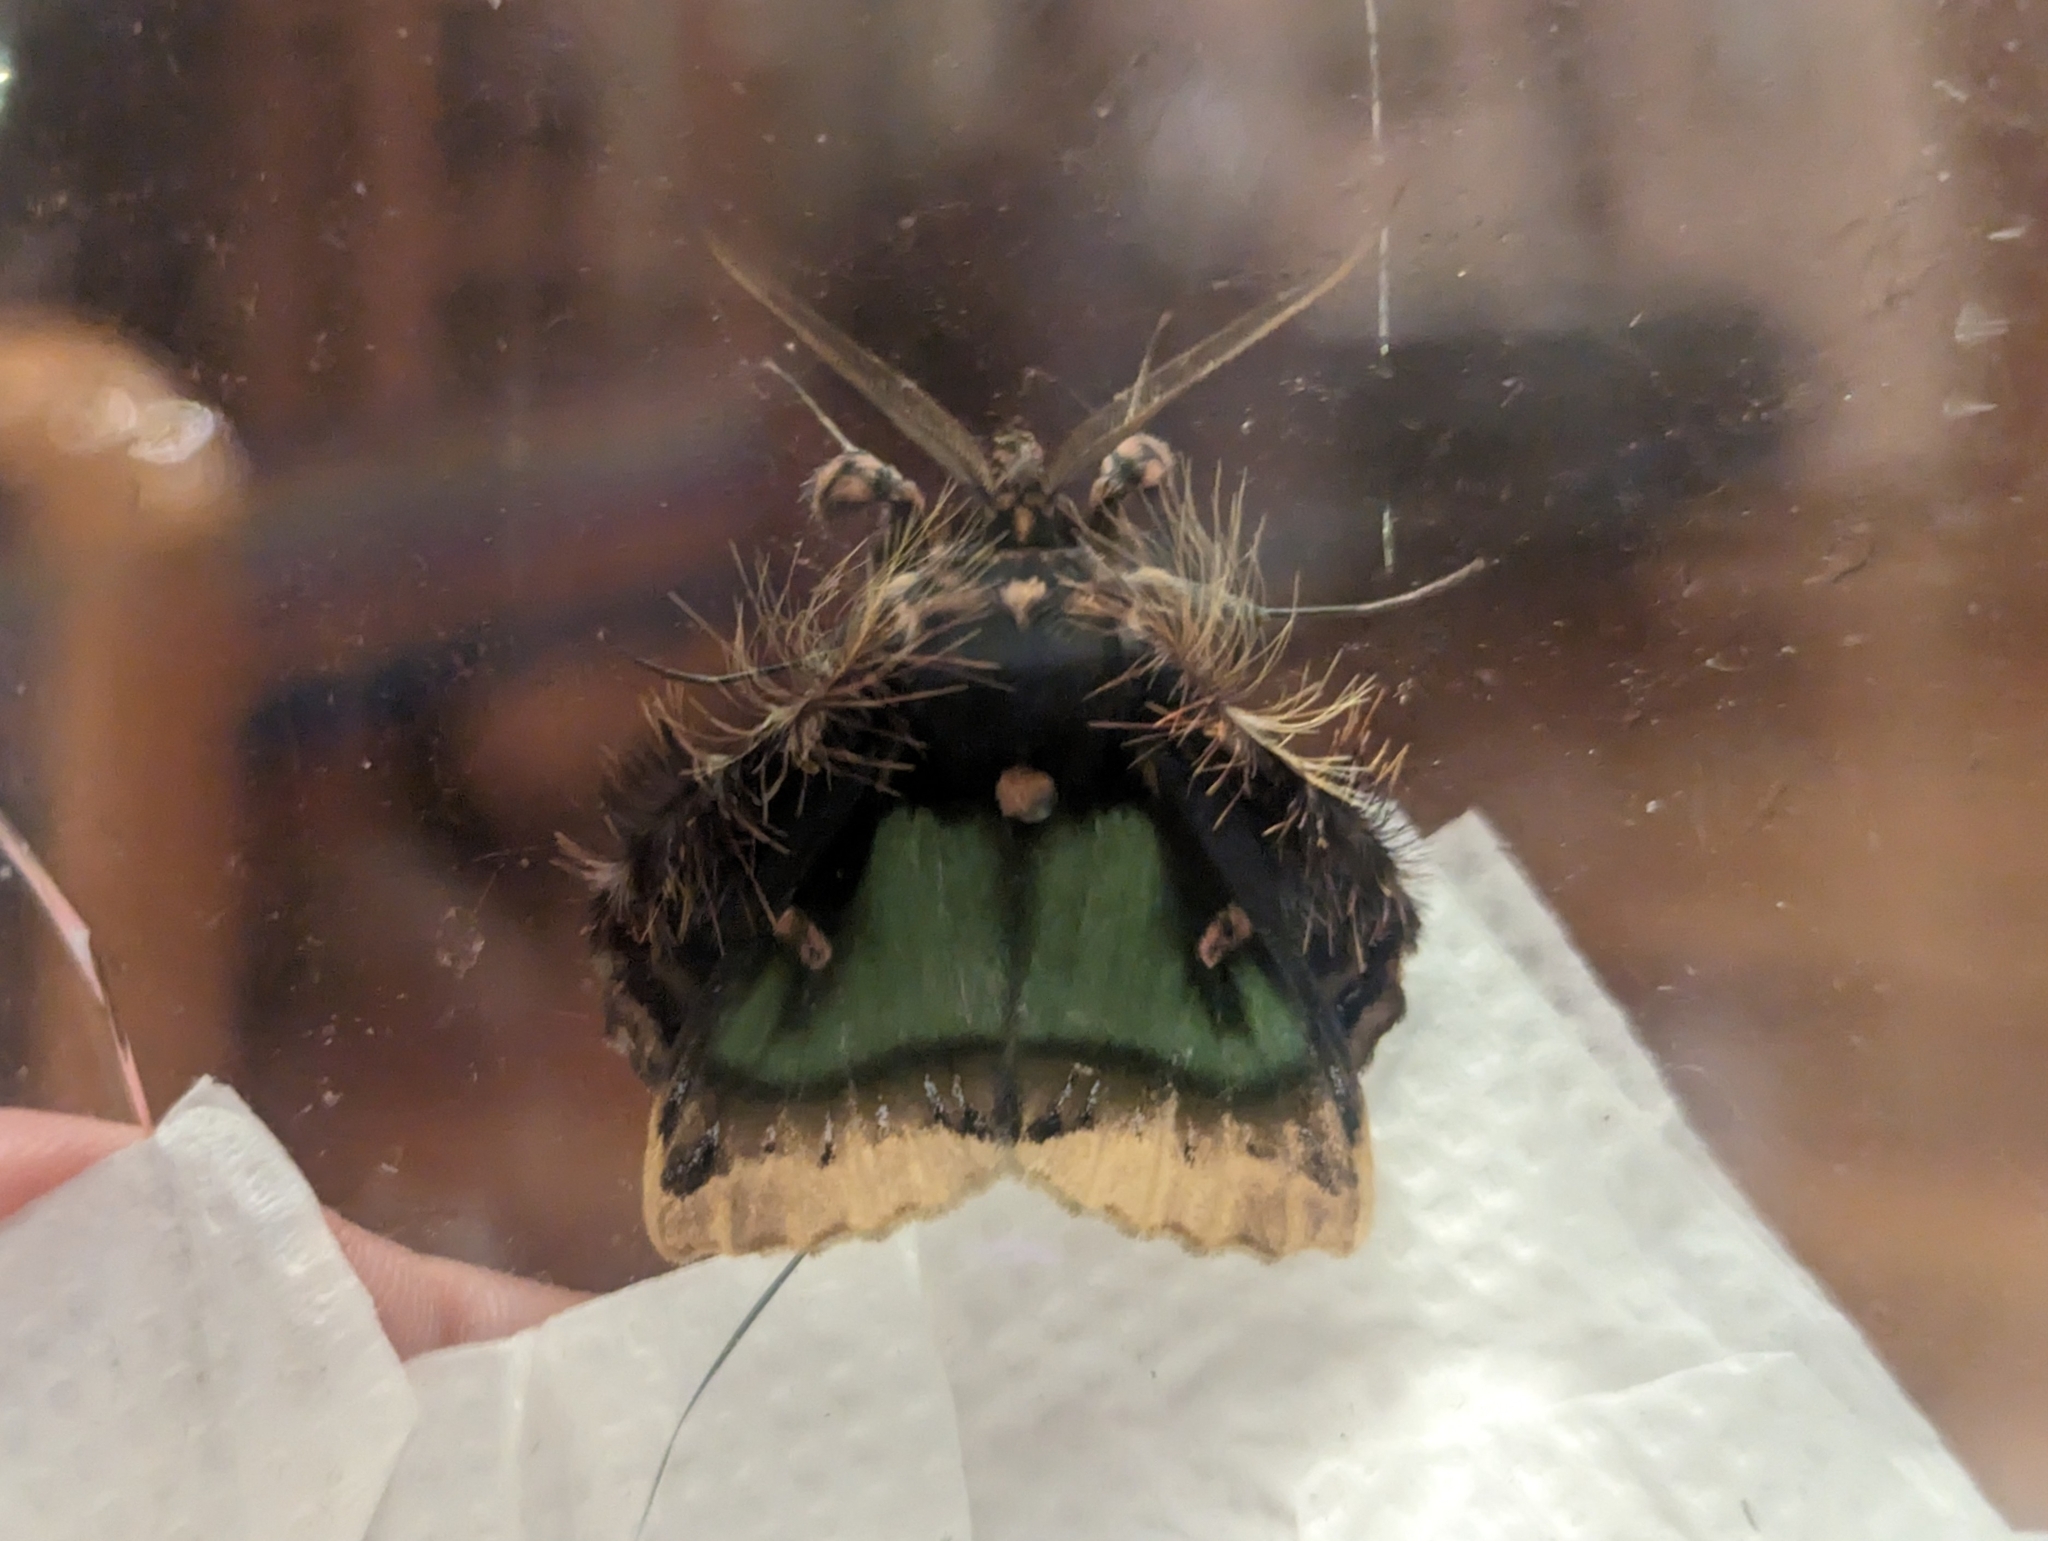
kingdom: Animalia
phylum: Arthropoda
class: Insecta
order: Lepidoptera
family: Erebidae
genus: Ceroctena
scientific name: Ceroctena amynta
